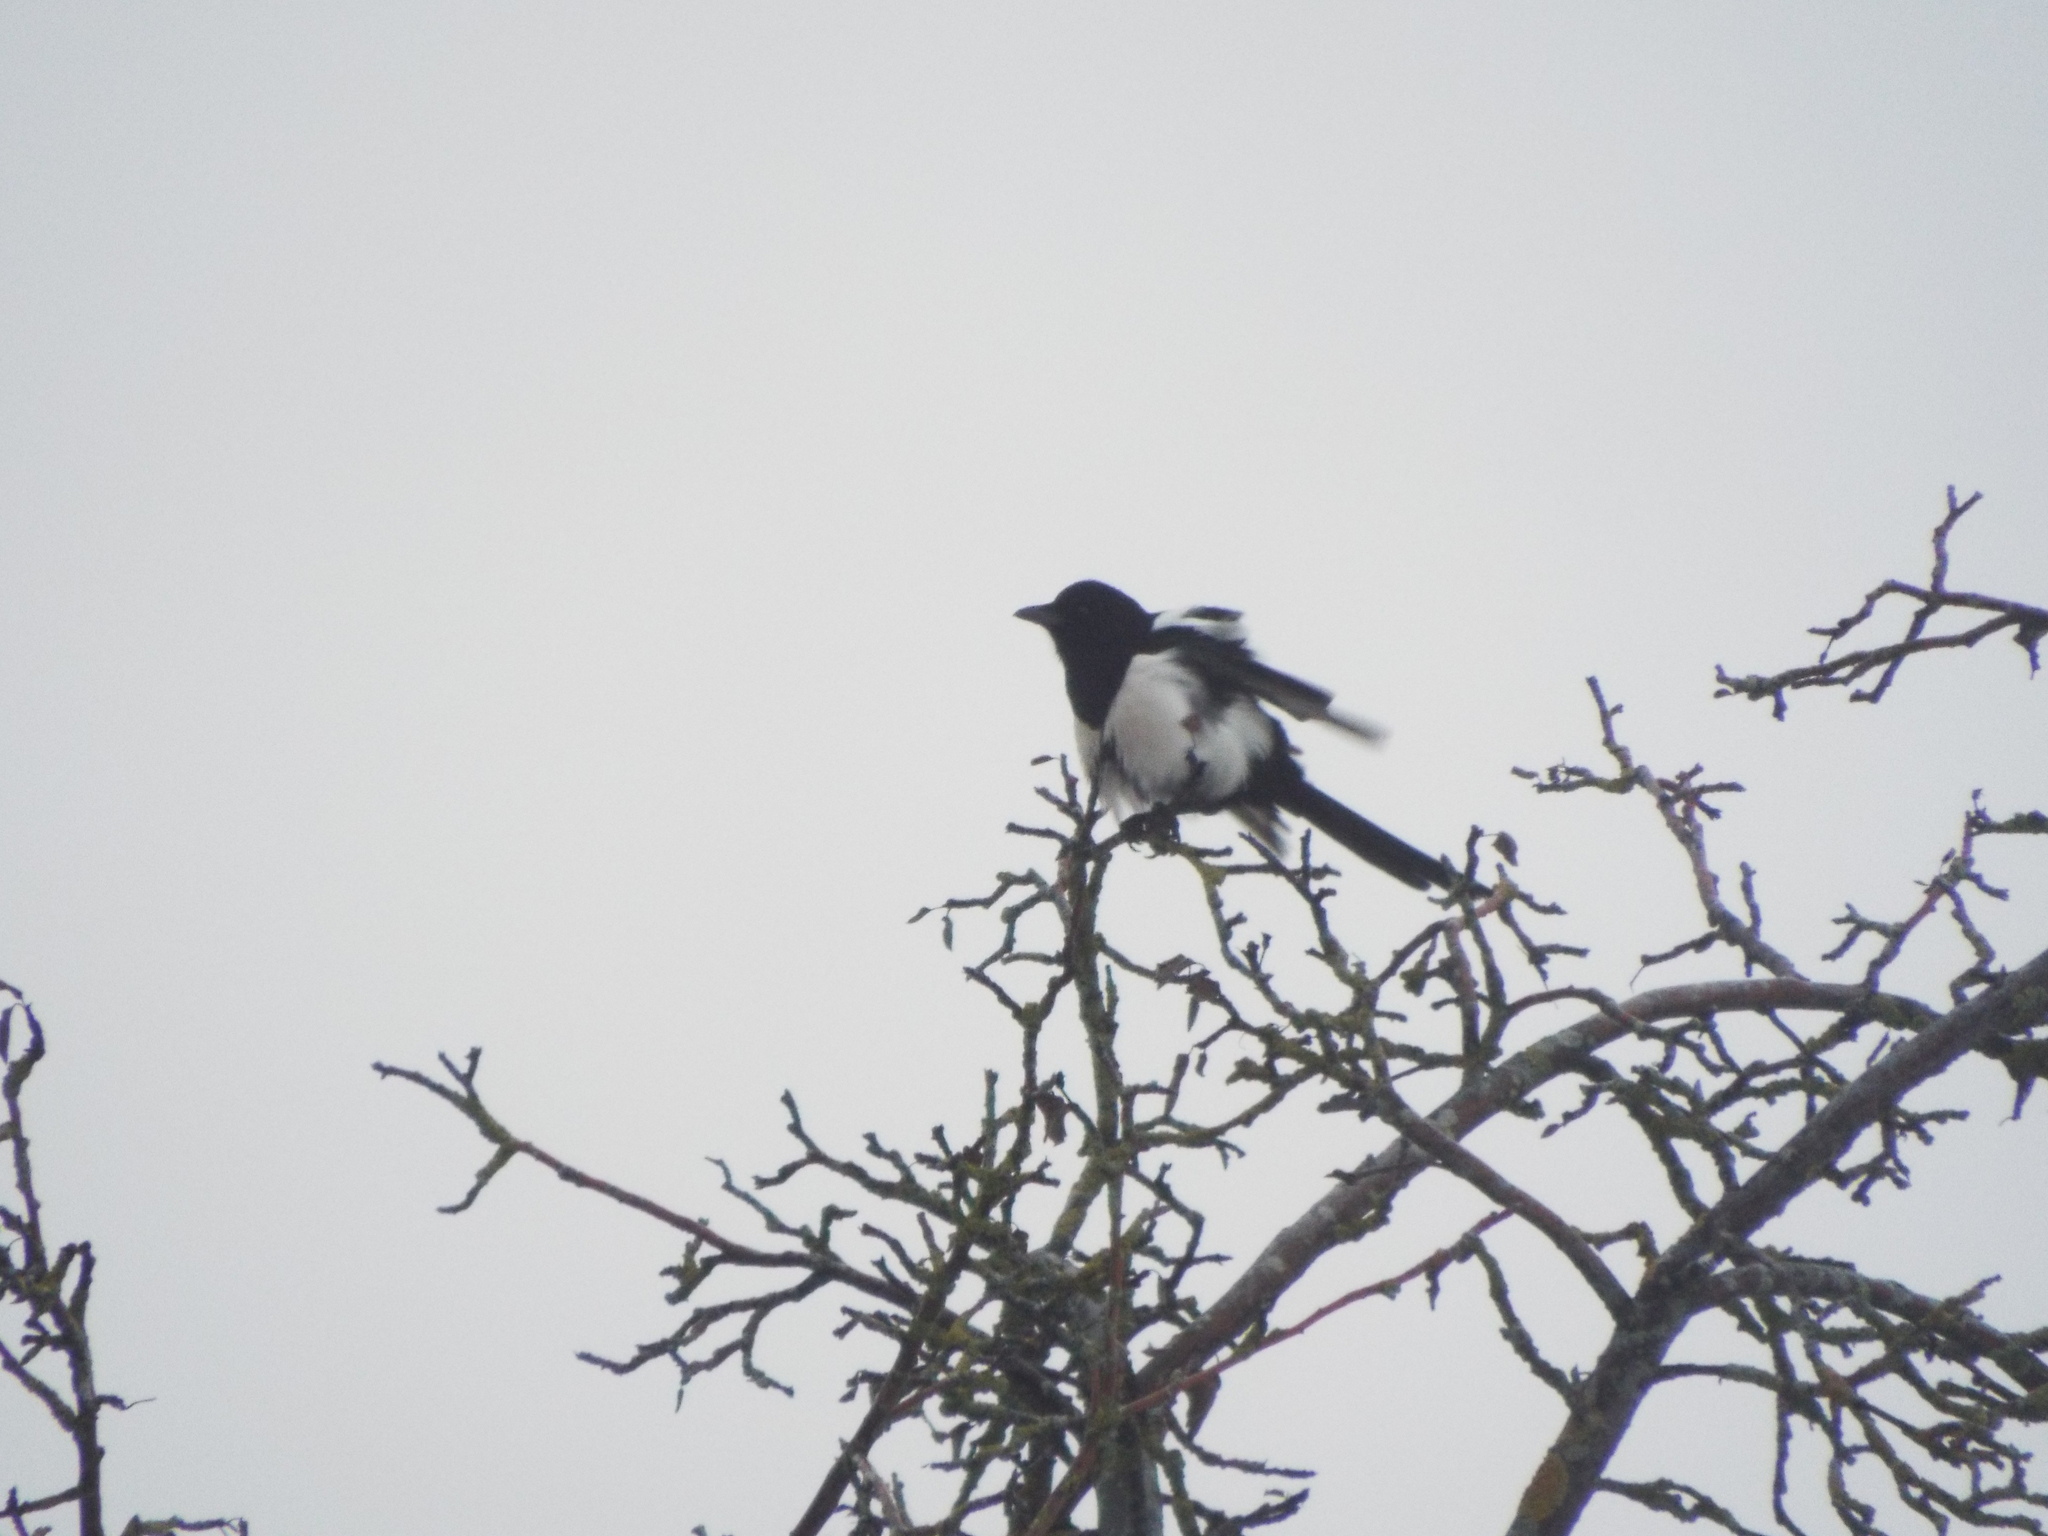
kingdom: Animalia
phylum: Chordata
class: Aves
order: Passeriformes
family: Corvidae
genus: Pica
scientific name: Pica pica
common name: Eurasian magpie
